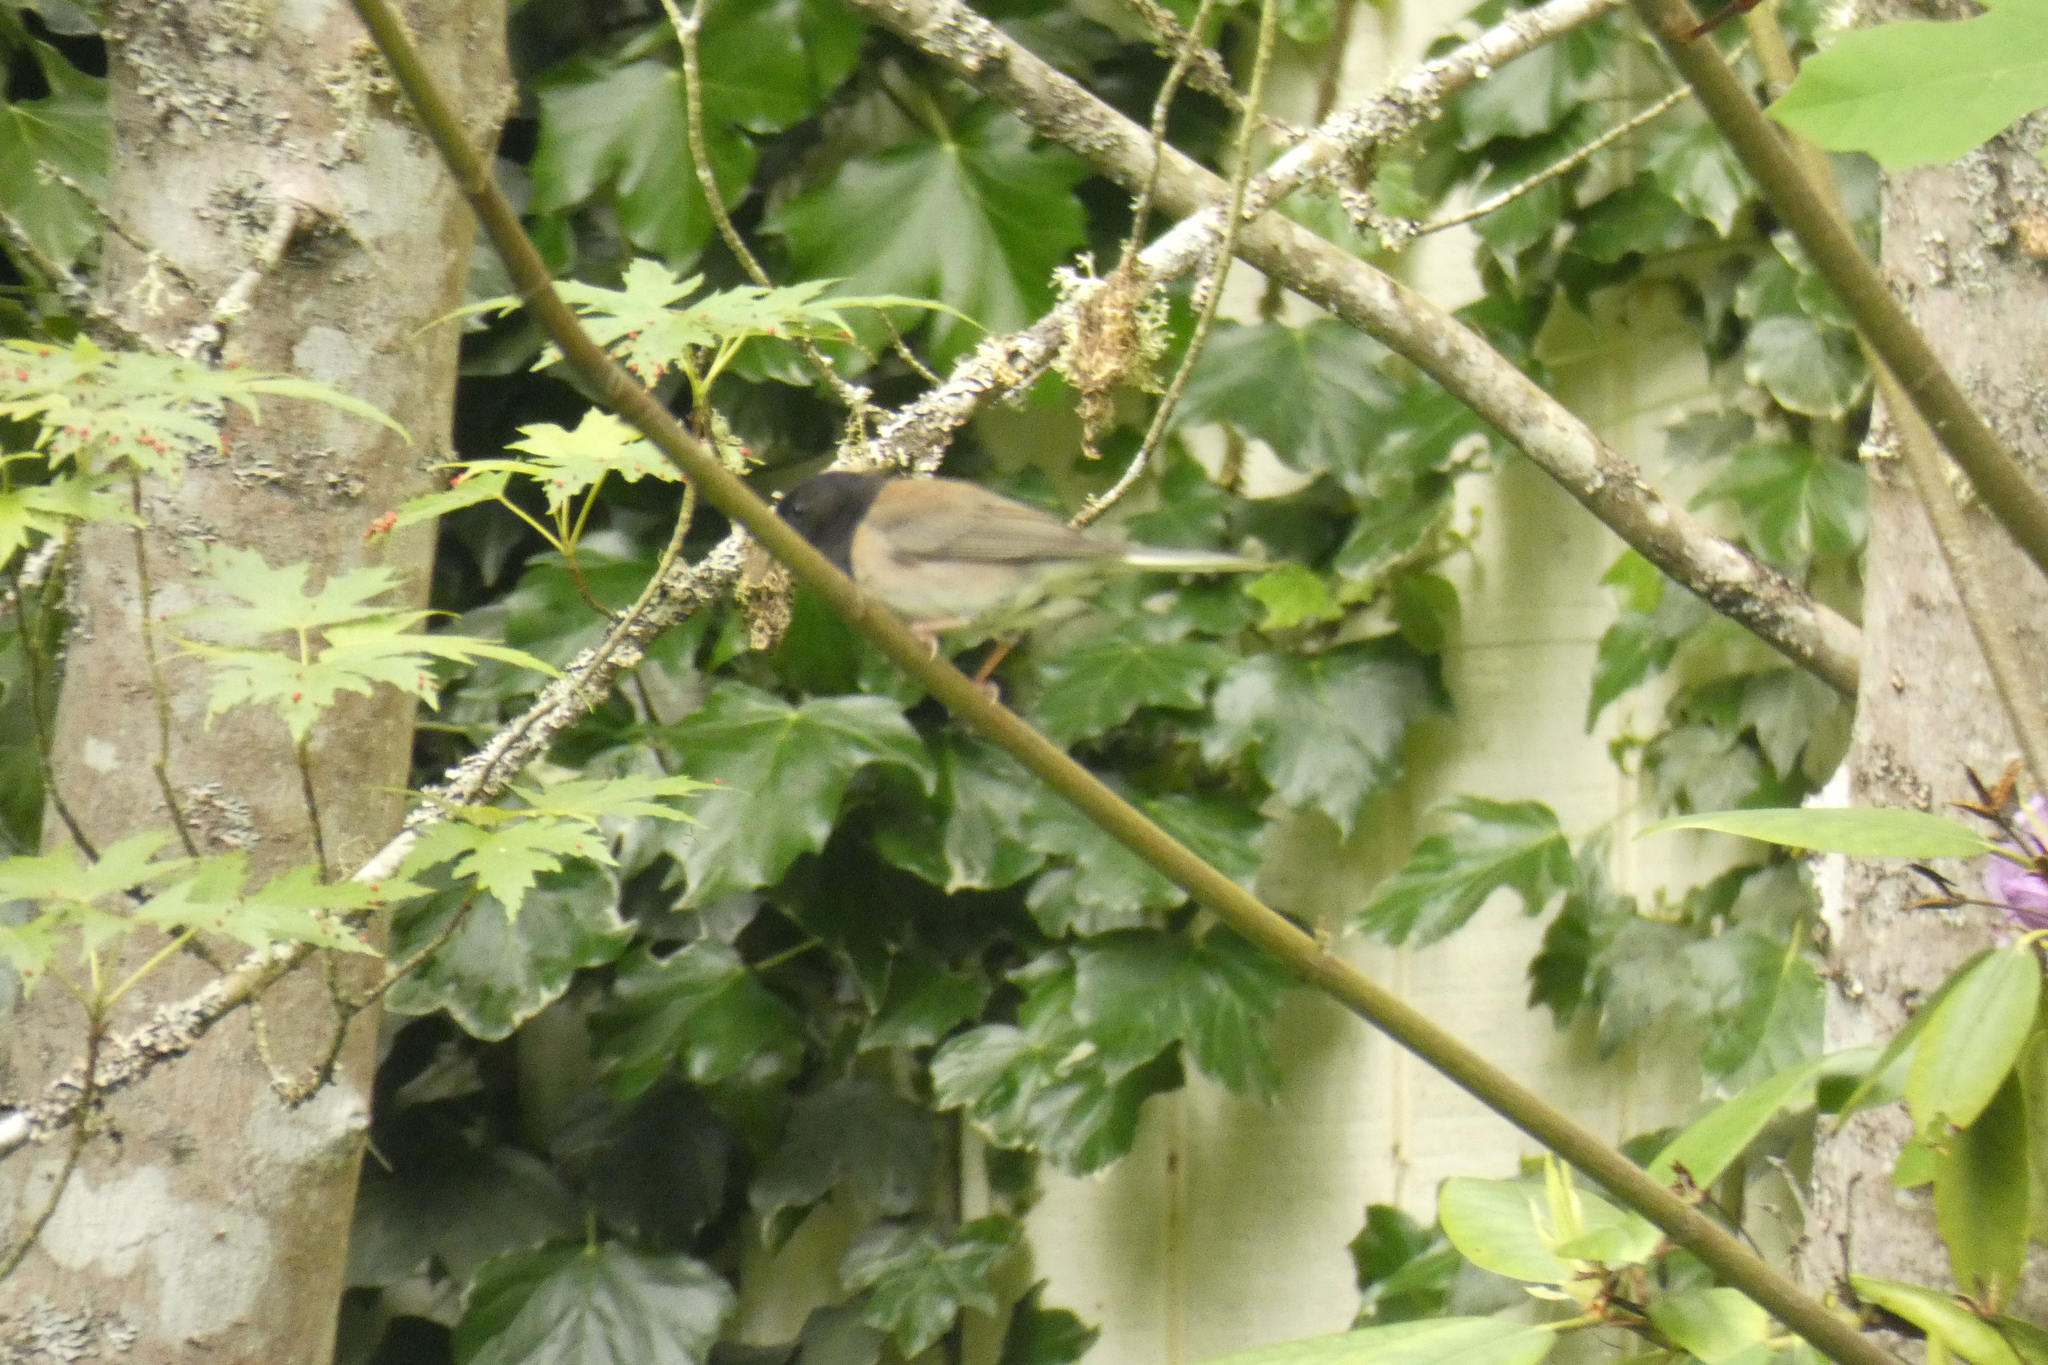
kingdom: Animalia
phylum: Chordata
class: Aves
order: Passeriformes
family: Passerellidae
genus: Junco
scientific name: Junco hyemalis
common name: Dark-eyed junco
